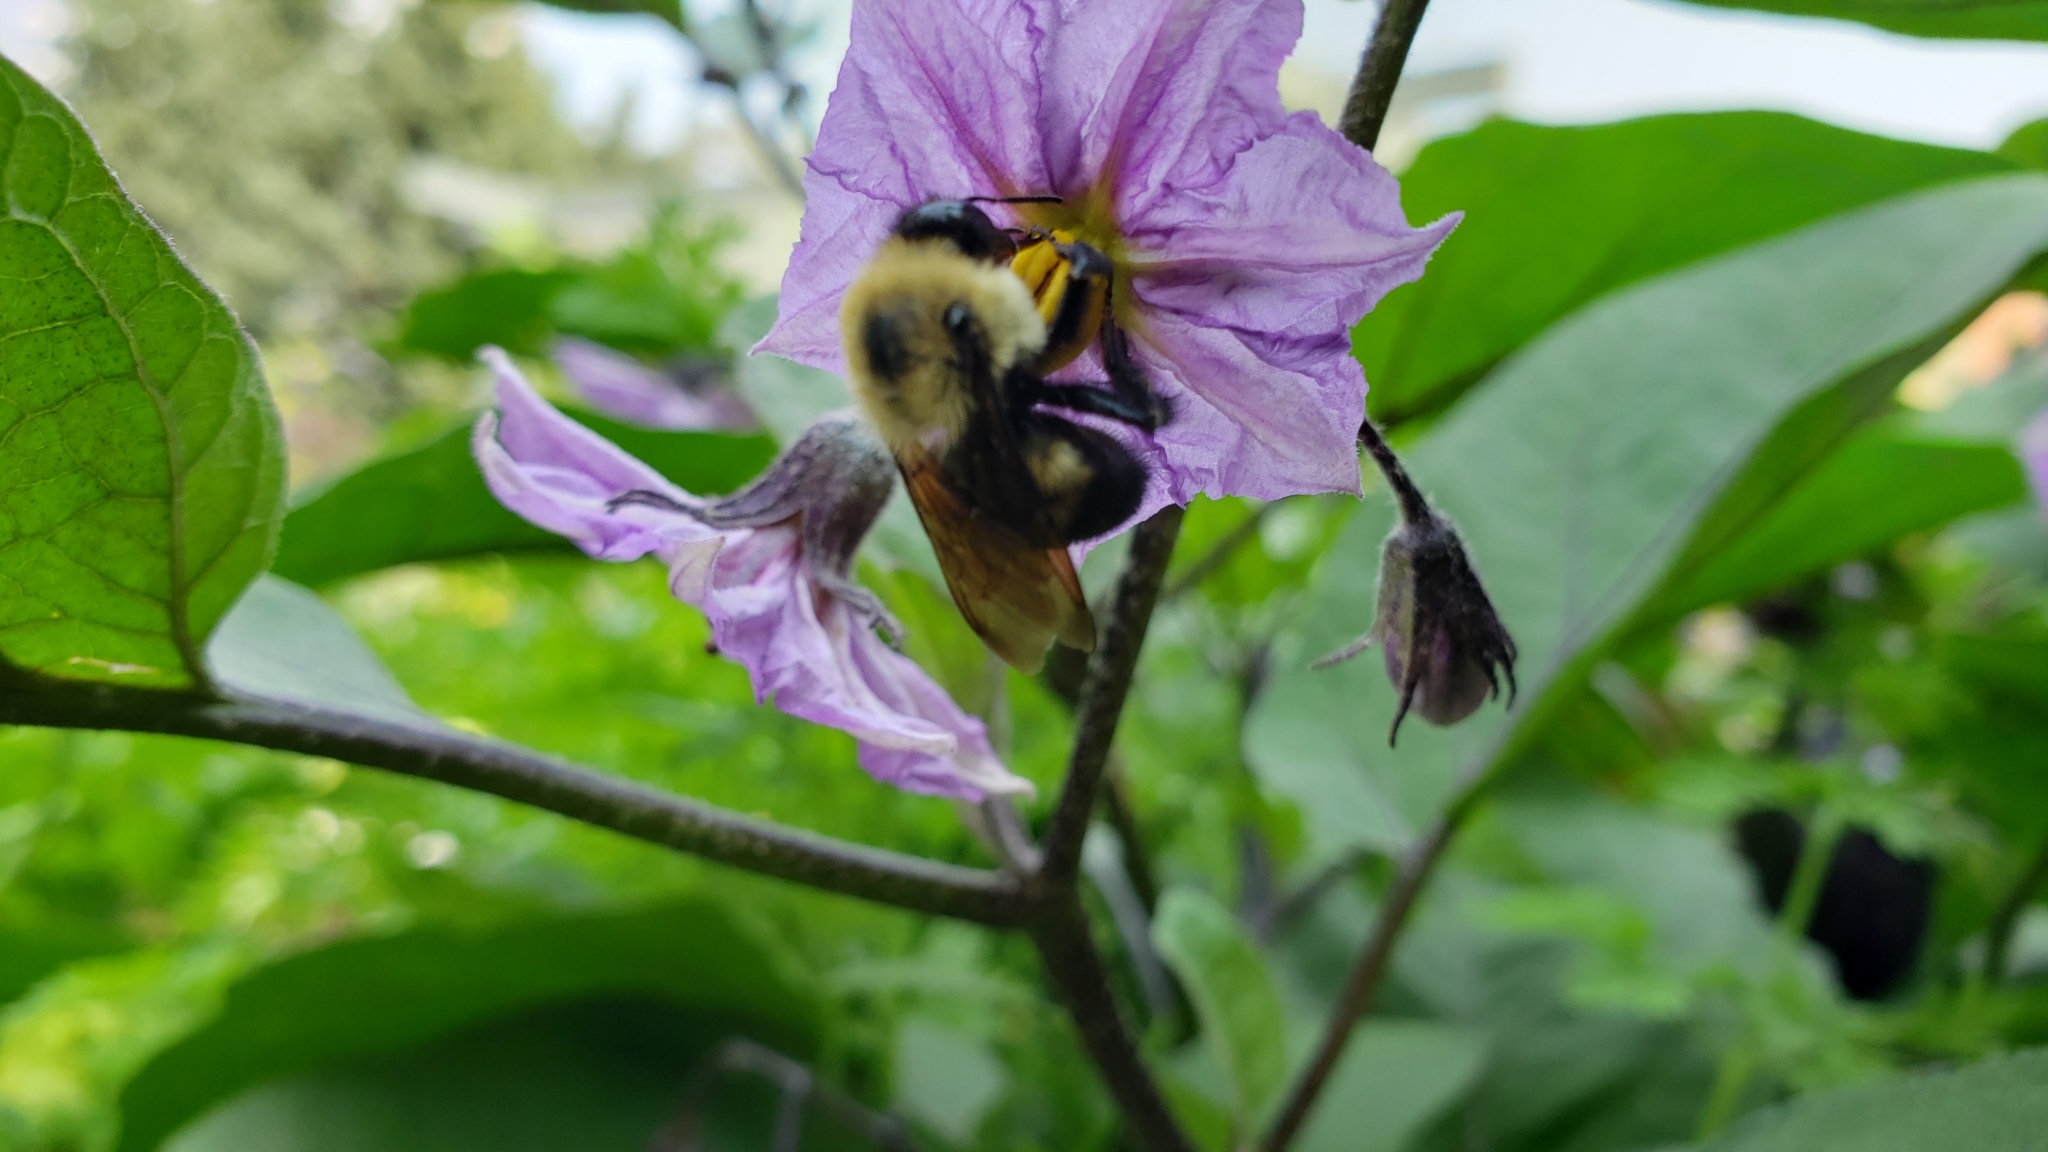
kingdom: Animalia
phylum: Arthropoda
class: Insecta
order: Hymenoptera
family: Apidae
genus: Bombus
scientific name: Bombus griseocollis
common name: Brown-belted bumble bee
